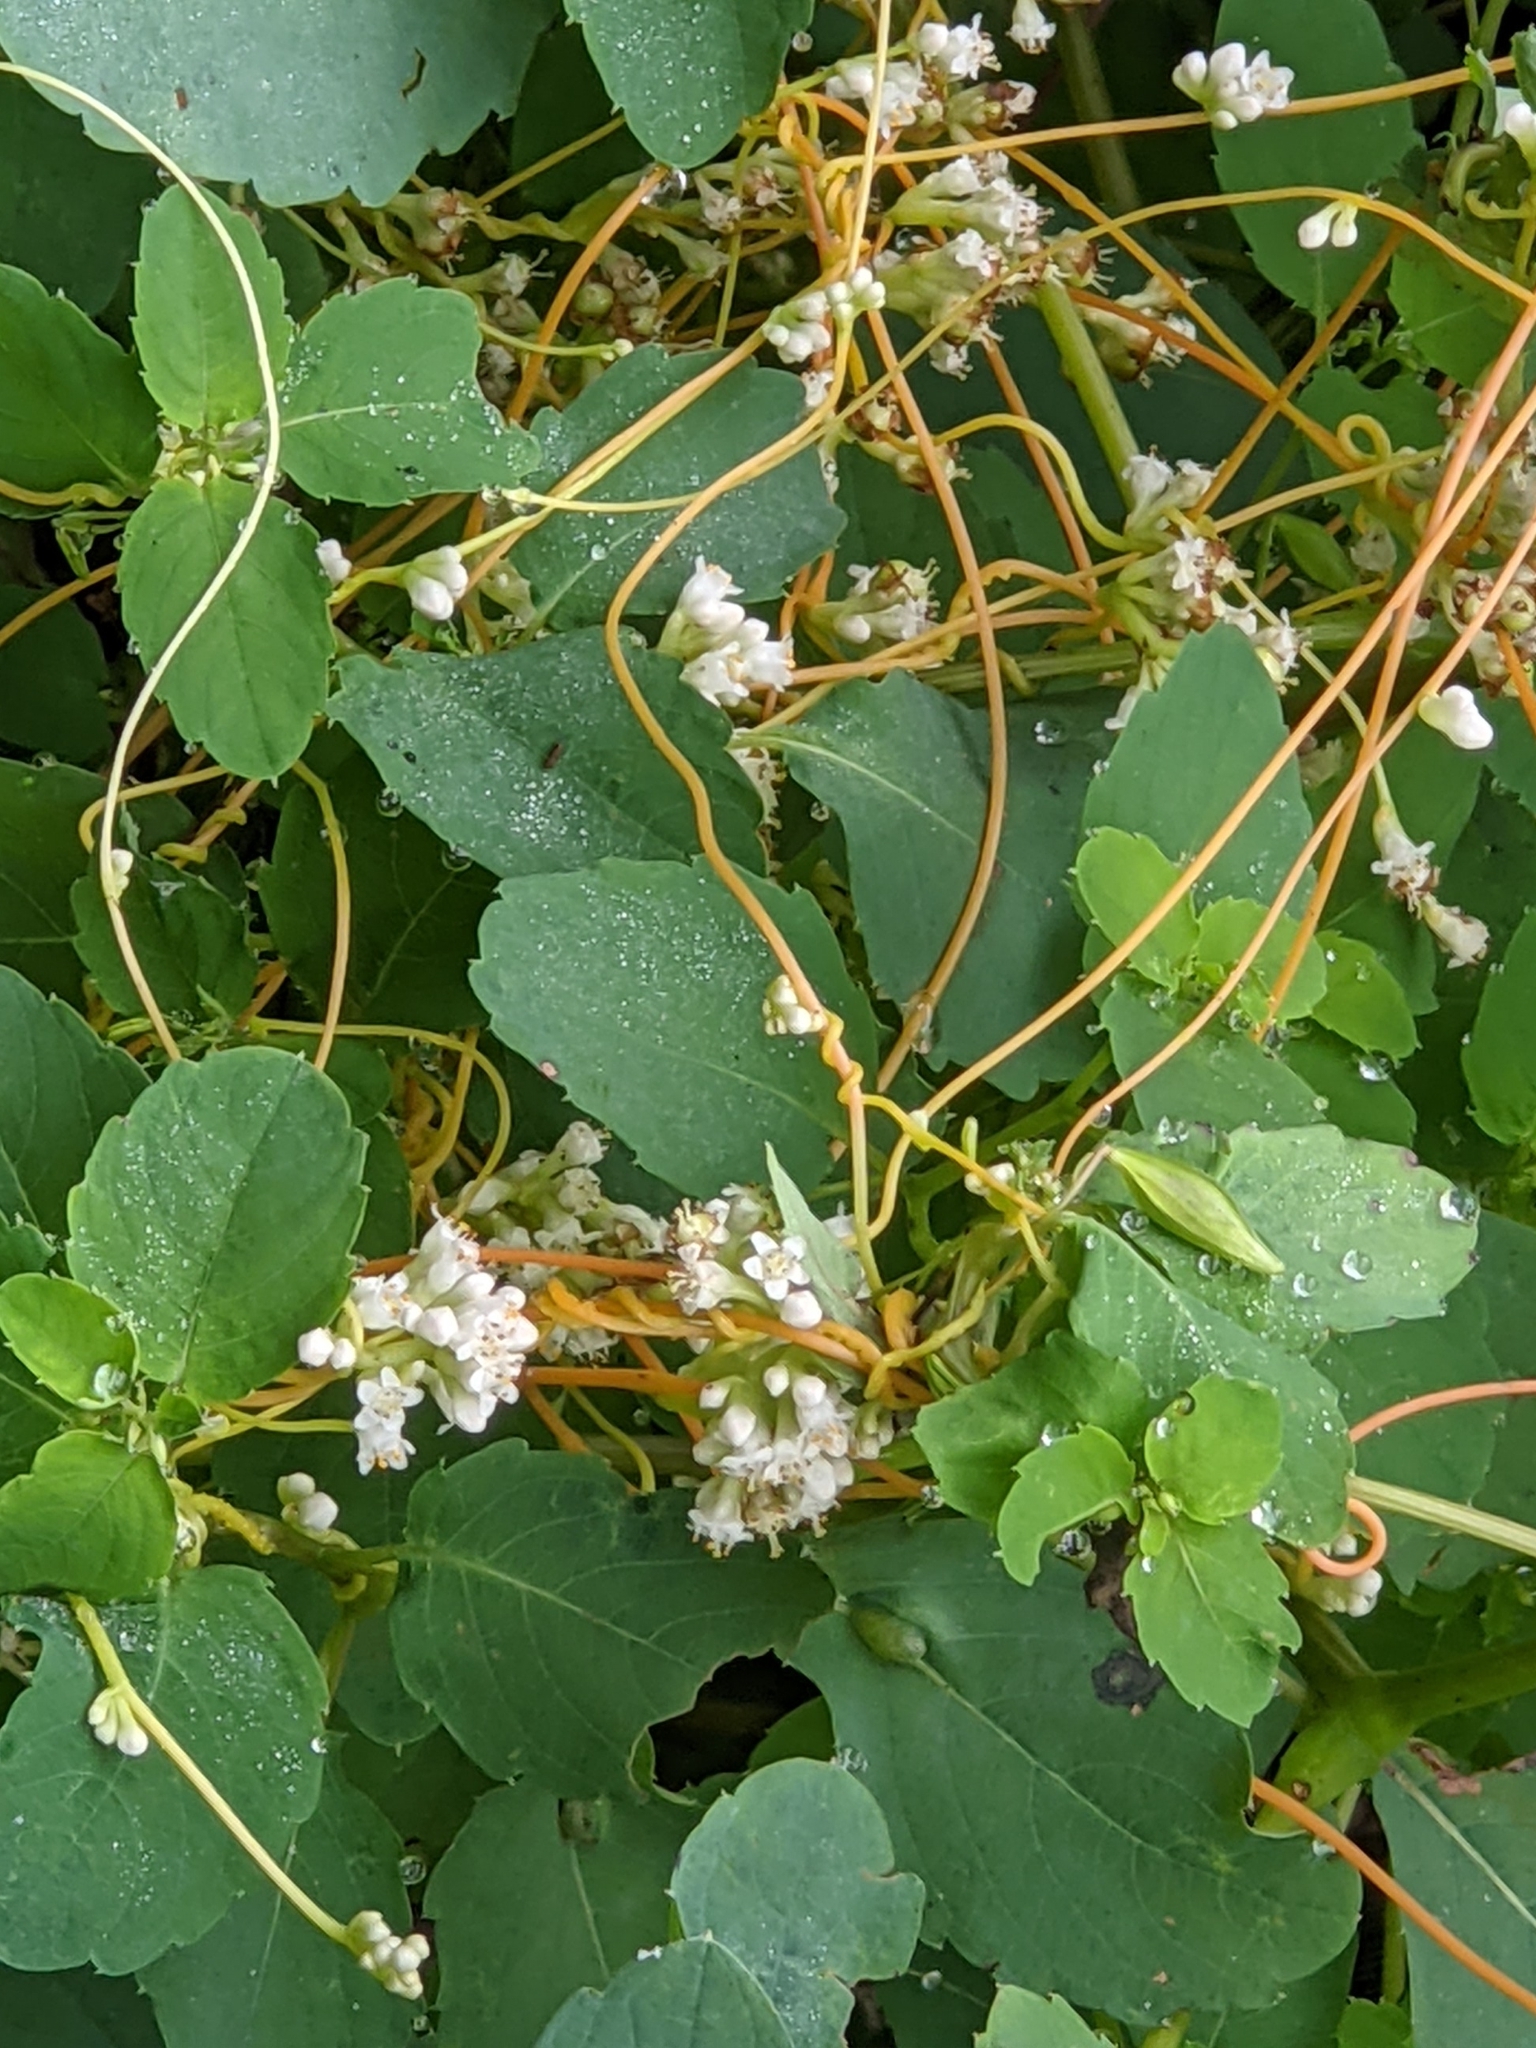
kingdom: Plantae
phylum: Tracheophyta
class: Magnoliopsida
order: Solanales
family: Convolvulaceae
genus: Cuscuta
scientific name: Cuscuta gronovii
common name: Common dodder
